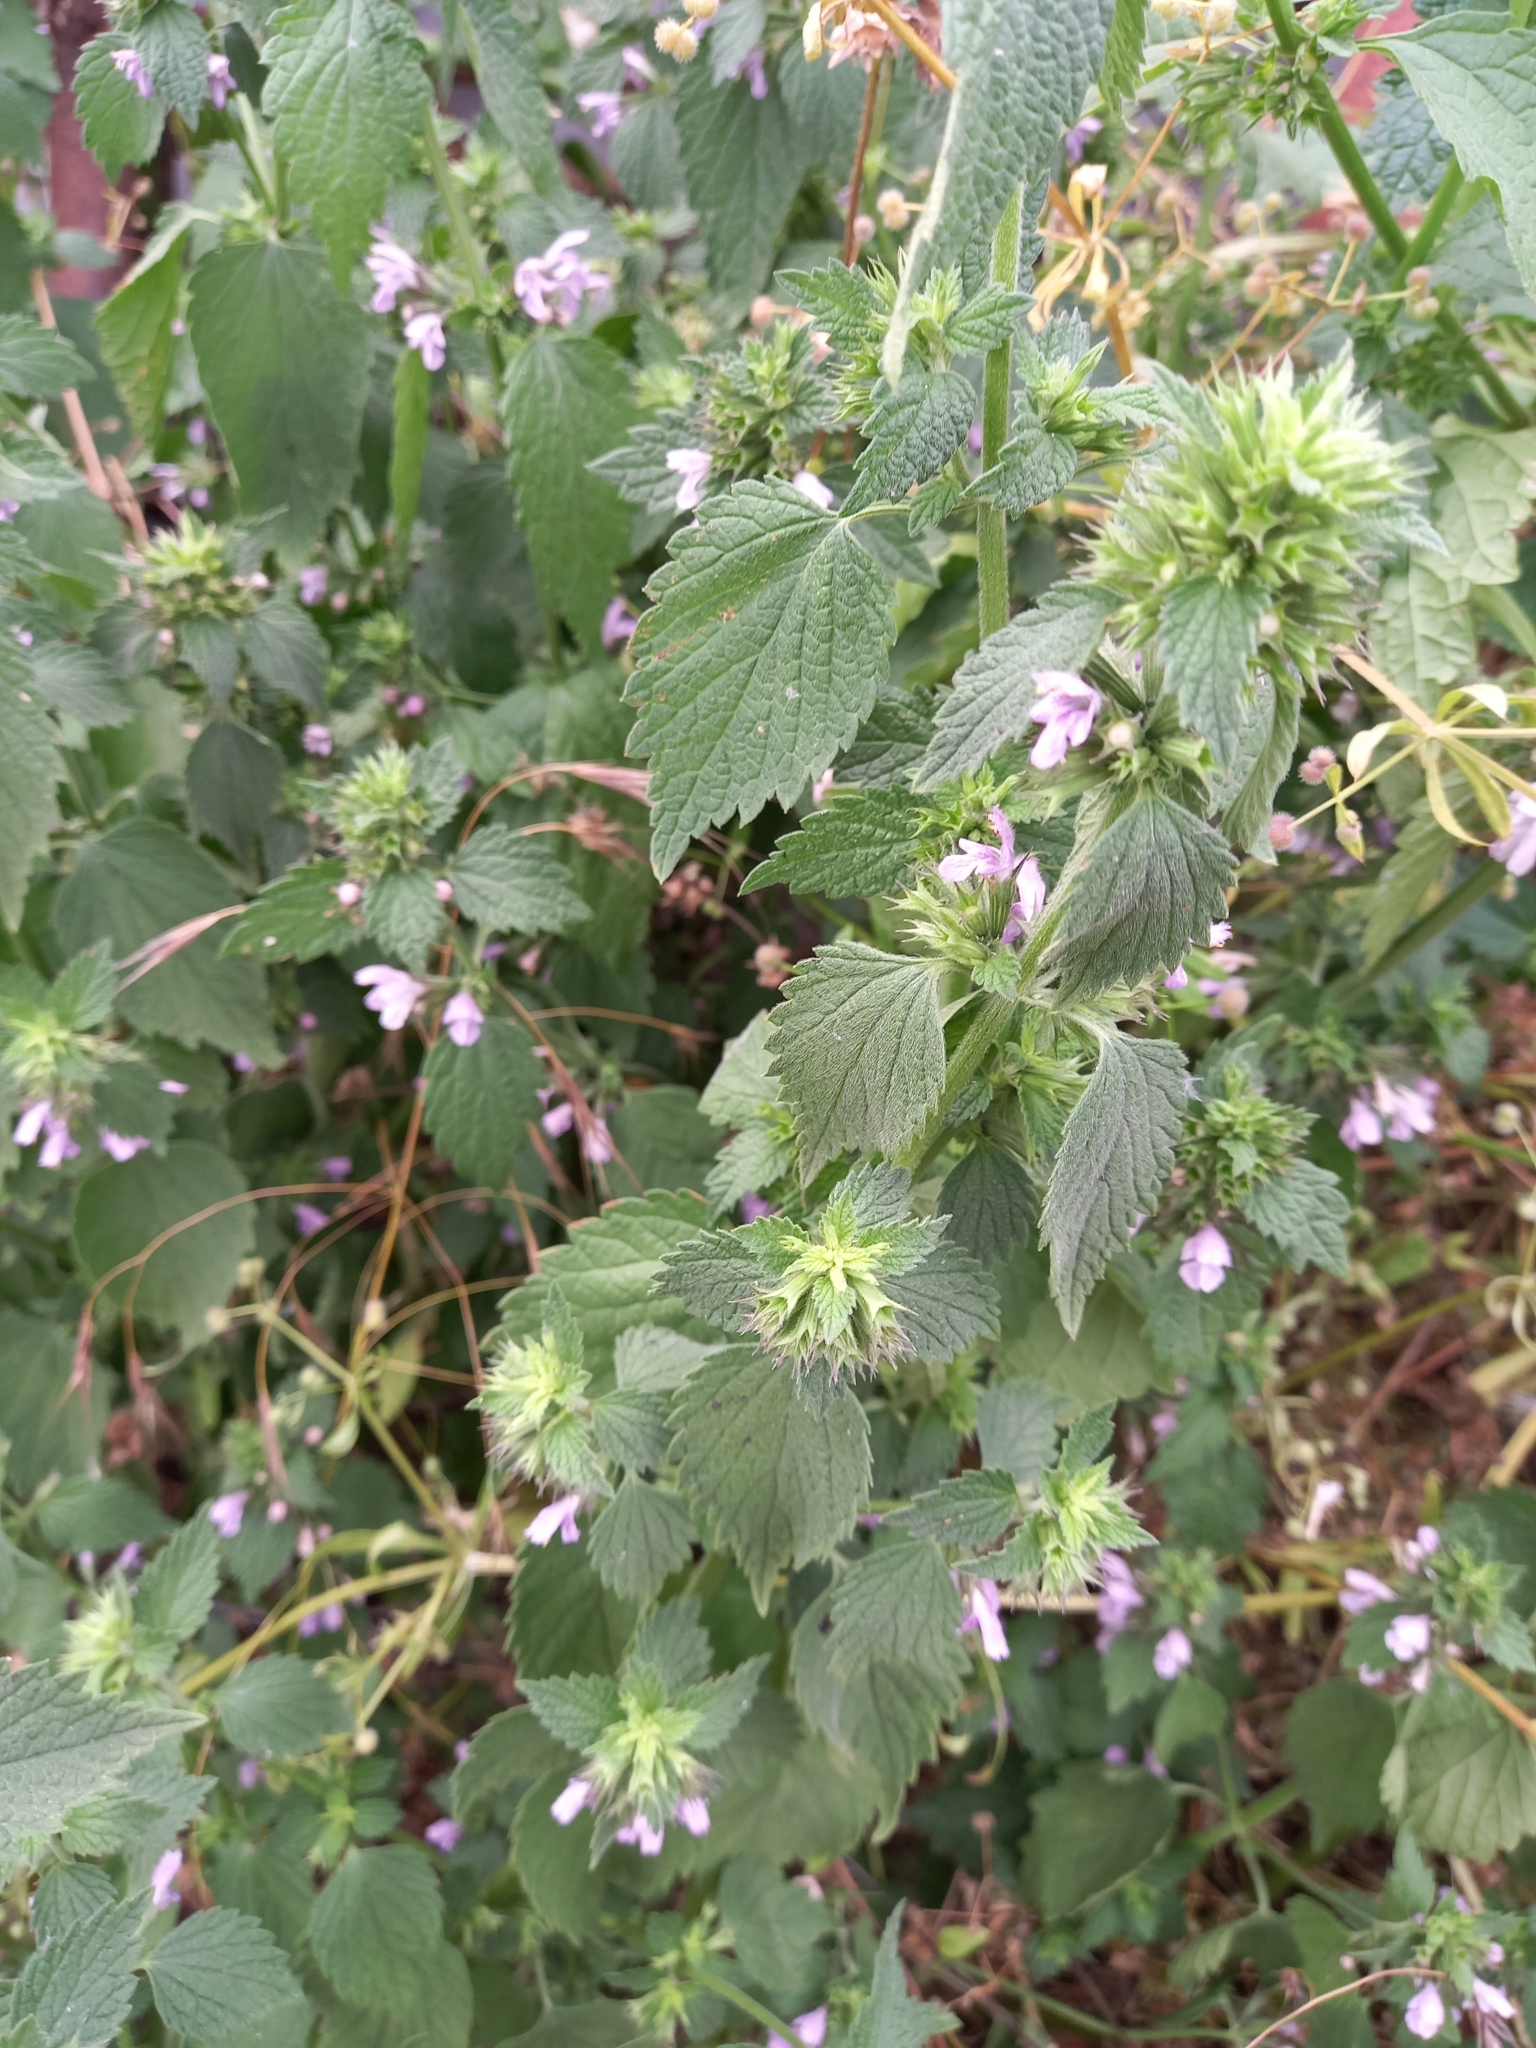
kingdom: Plantae
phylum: Tracheophyta
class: Magnoliopsida
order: Lamiales
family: Lamiaceae
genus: Ballota
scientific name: Ballota nigra
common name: Black horehound
